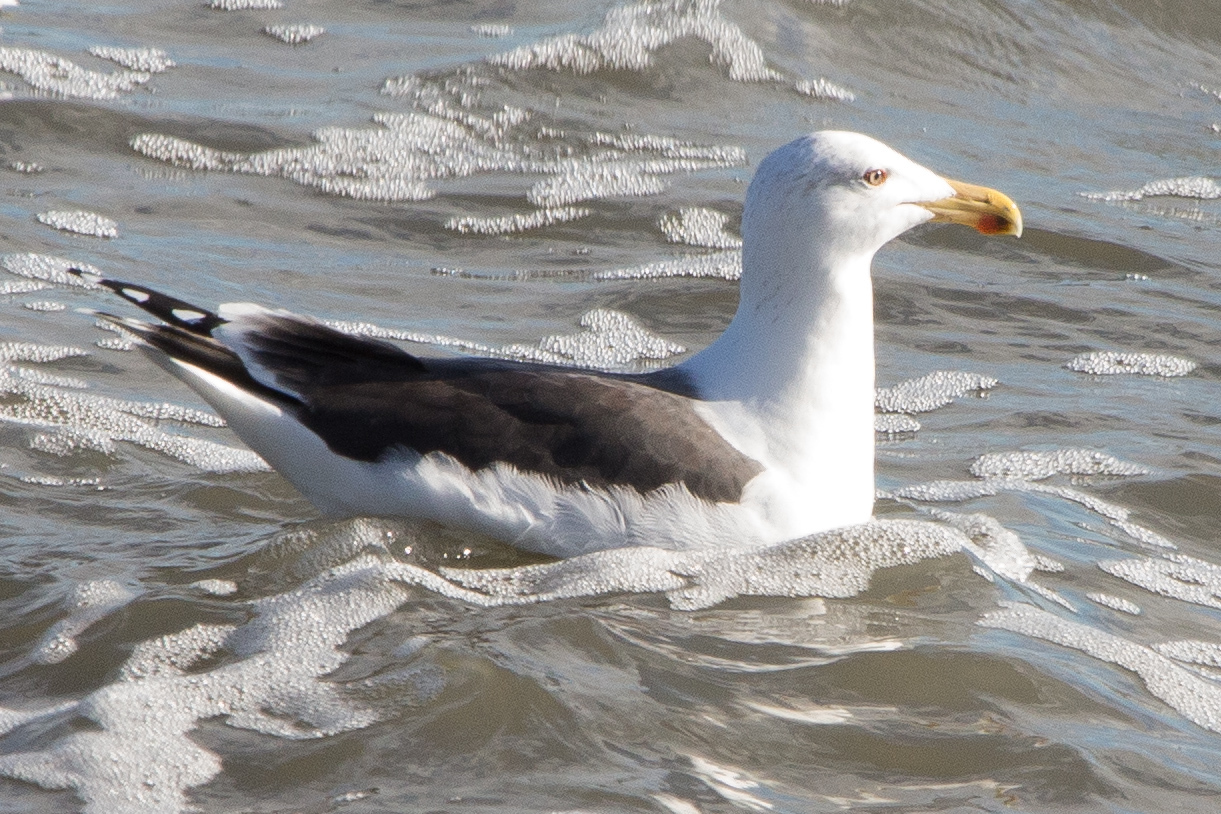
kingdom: Animalia
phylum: Chordata
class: Aves
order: Charadriiformes
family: Laridae
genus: Larus
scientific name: Larus marinus
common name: Great black-backed gull
